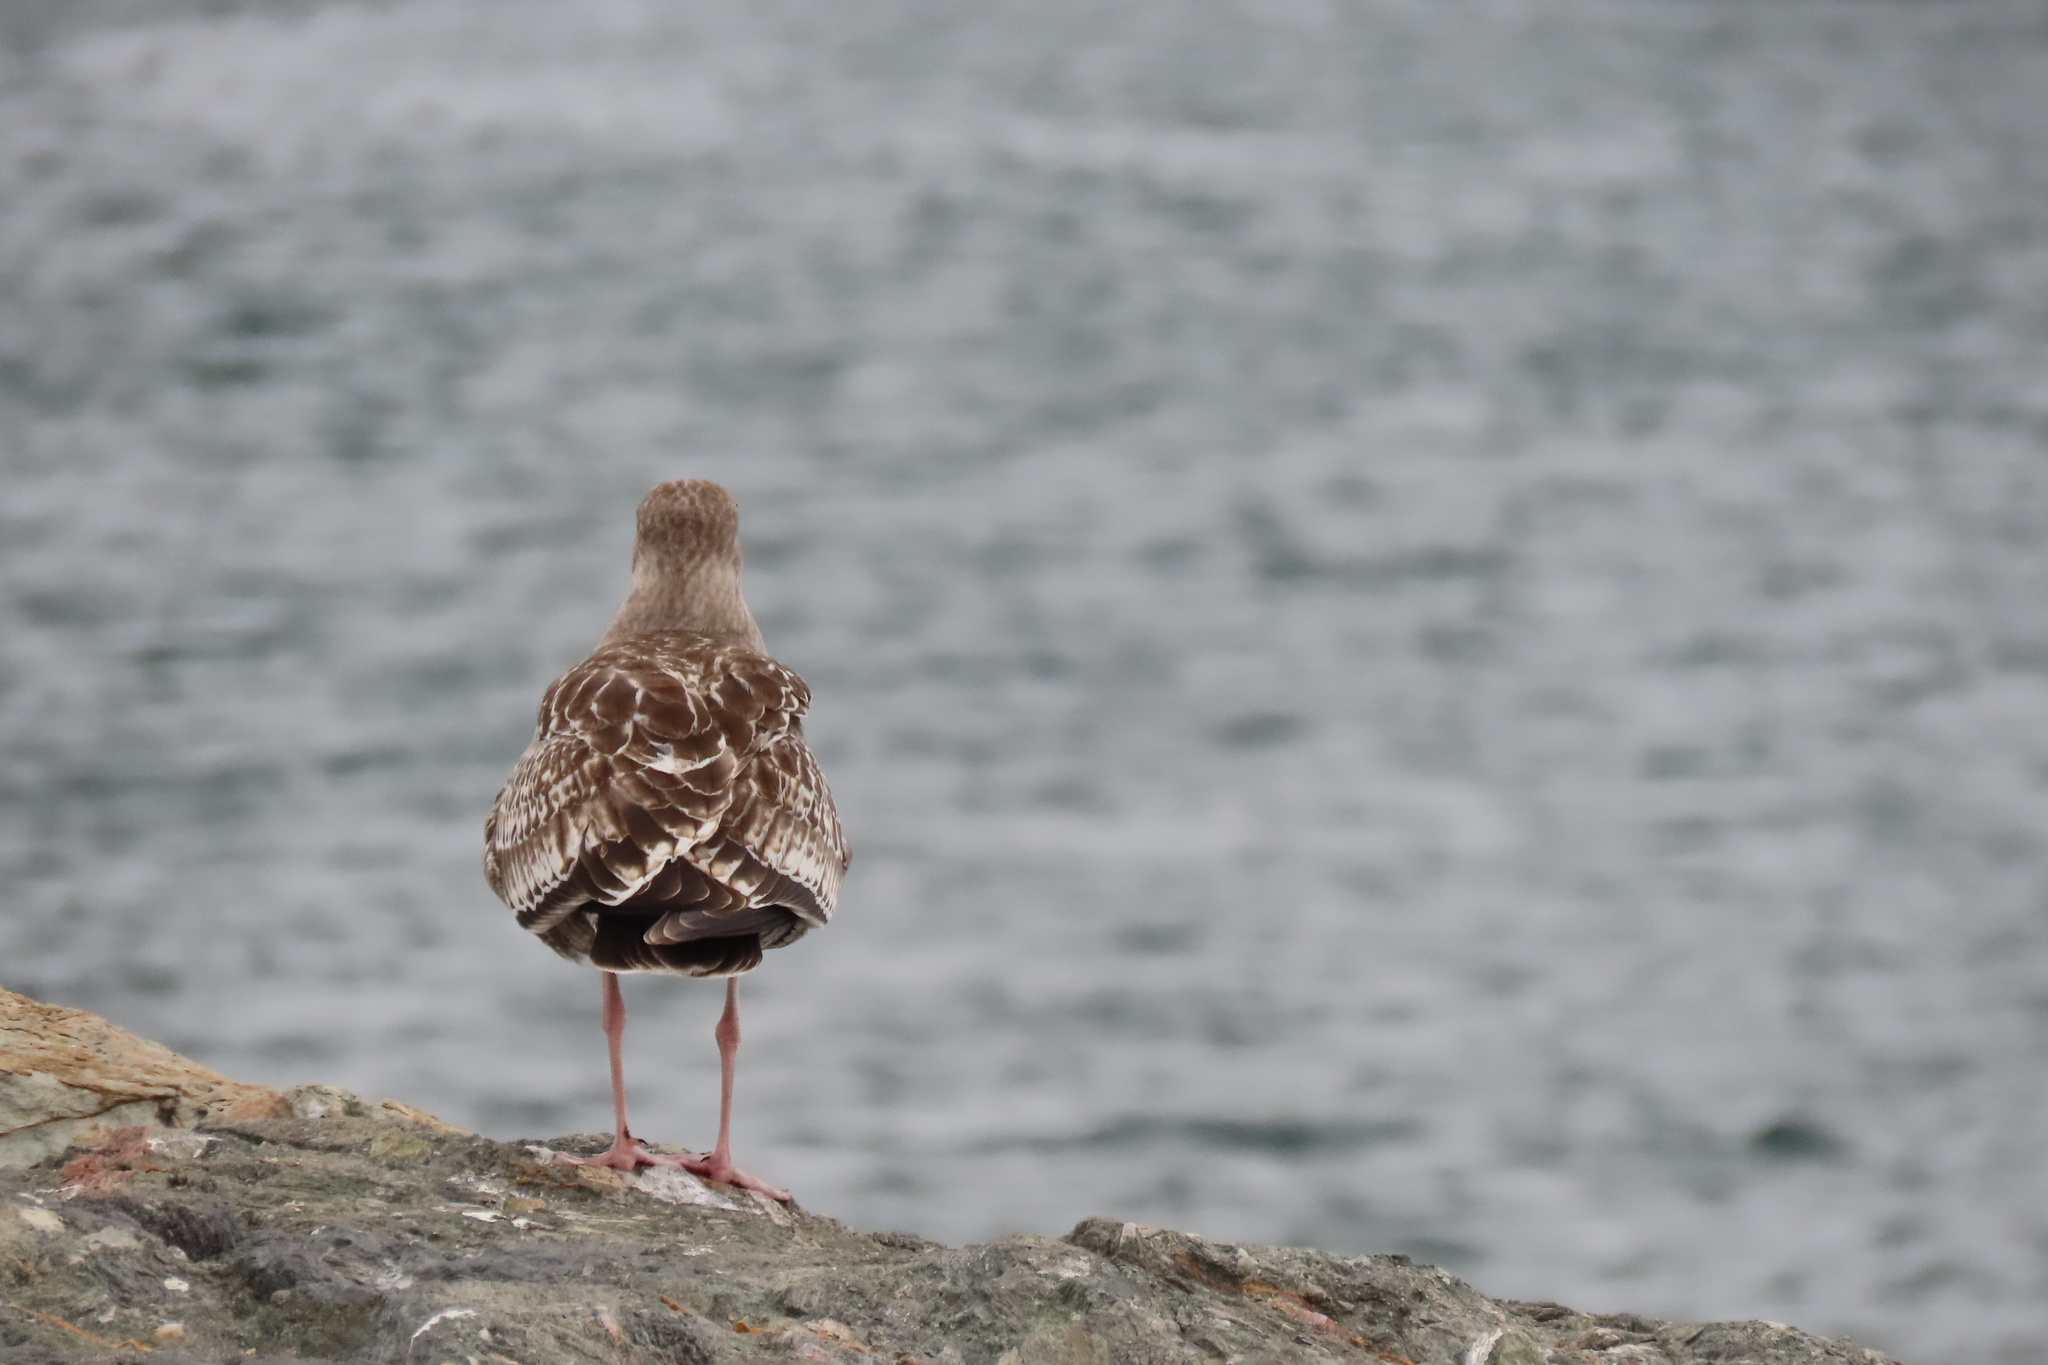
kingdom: Animalia
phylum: Chordata
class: Aves
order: Charadriiformes
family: Laridae
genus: Larus
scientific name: Larus occidentalis
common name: Western gull
